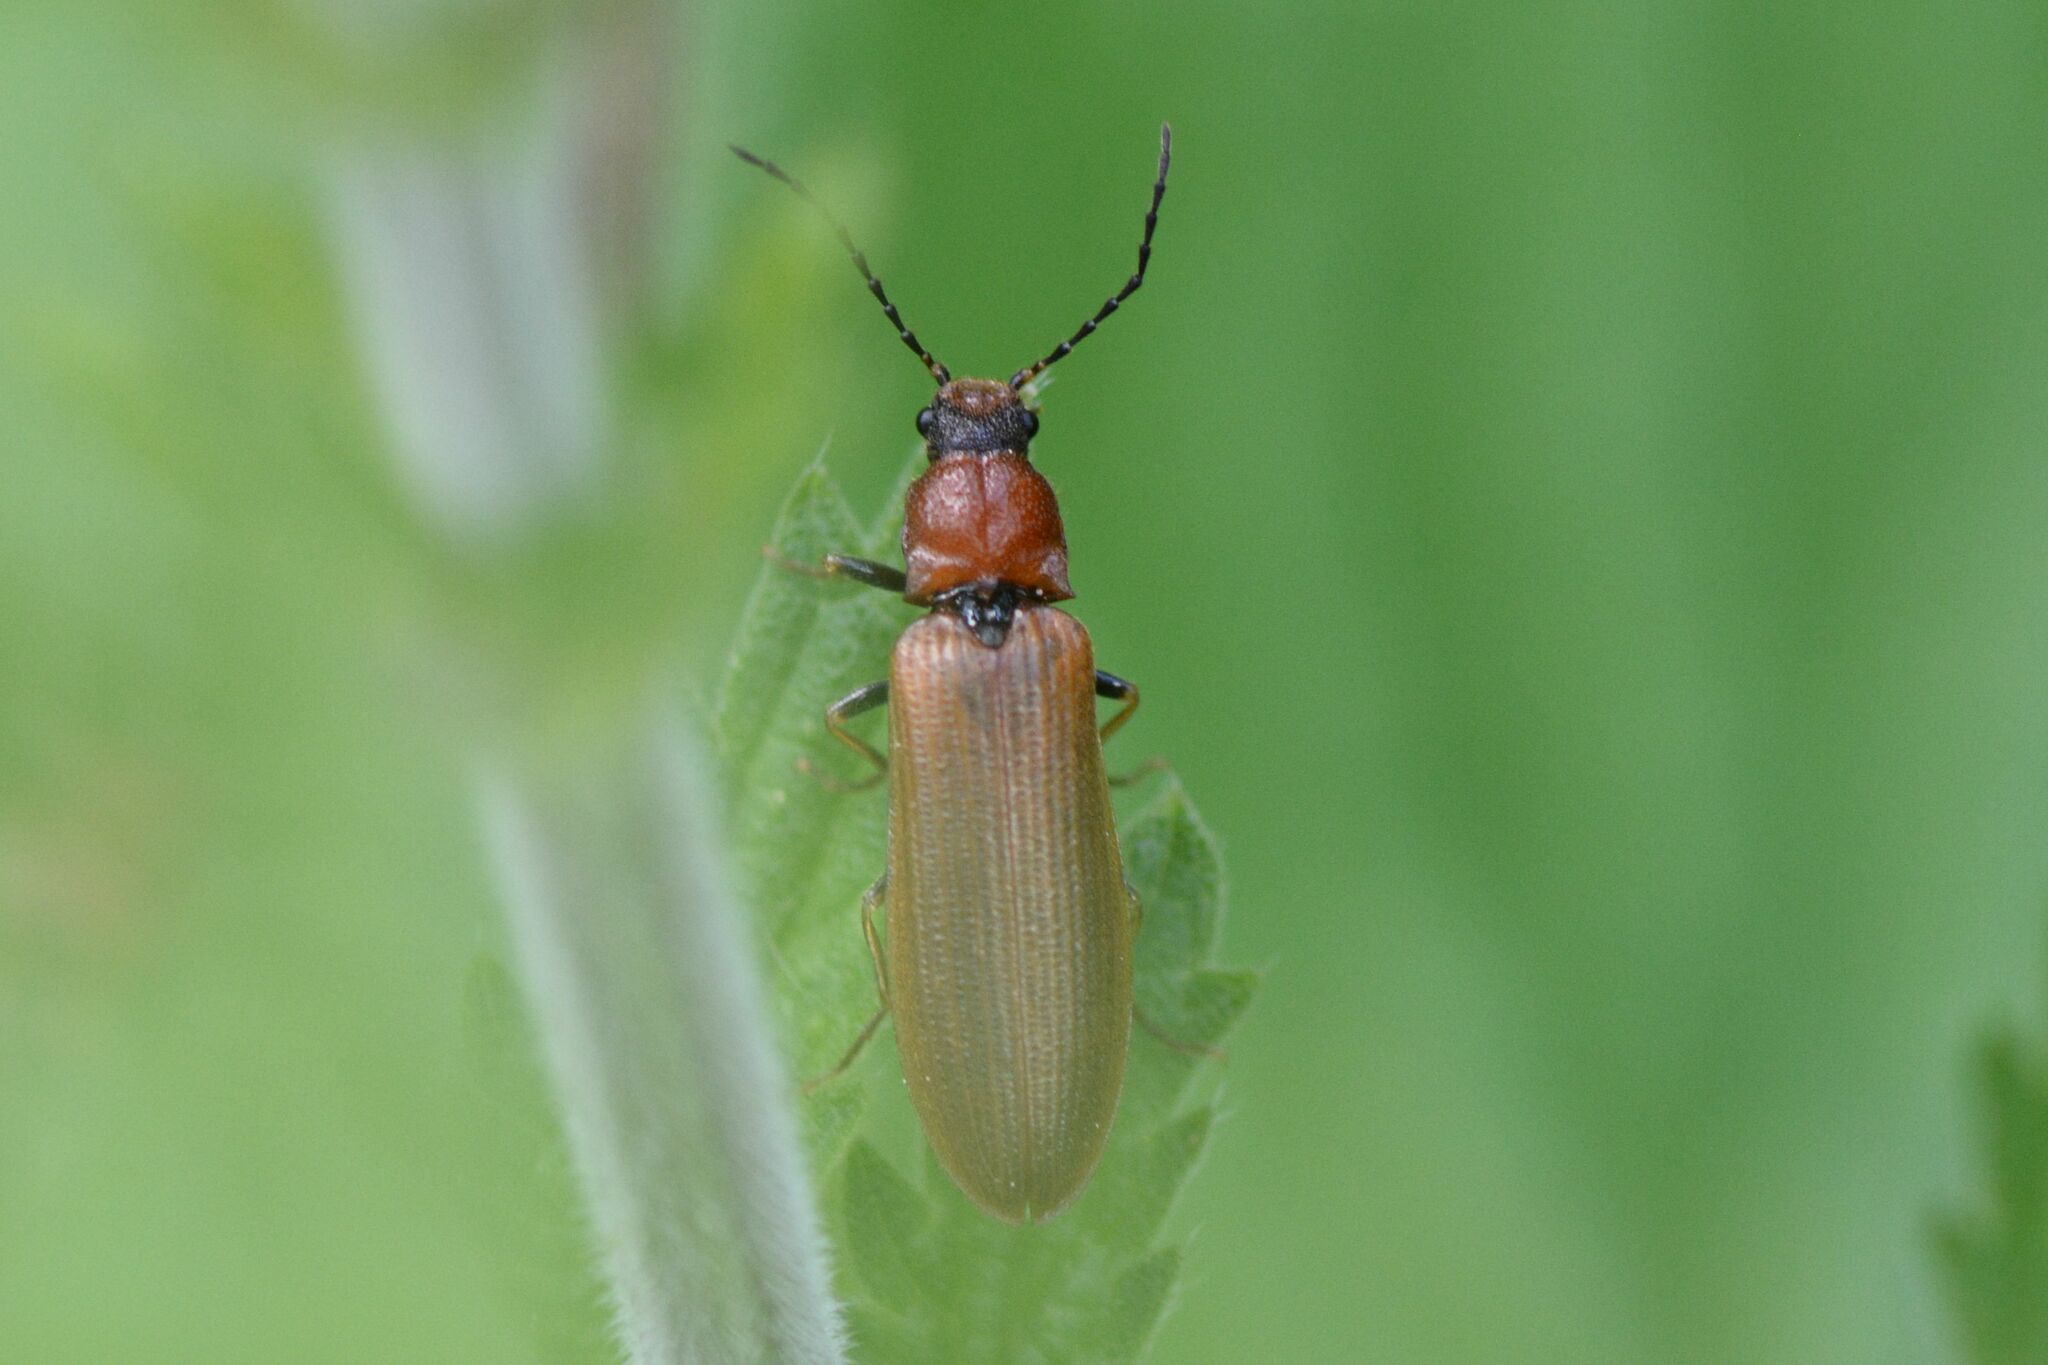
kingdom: Animalia
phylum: Arthropoda
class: Insecta
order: Coleoptera
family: Elateridae
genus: Denticollis
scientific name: Denticollis linearis
